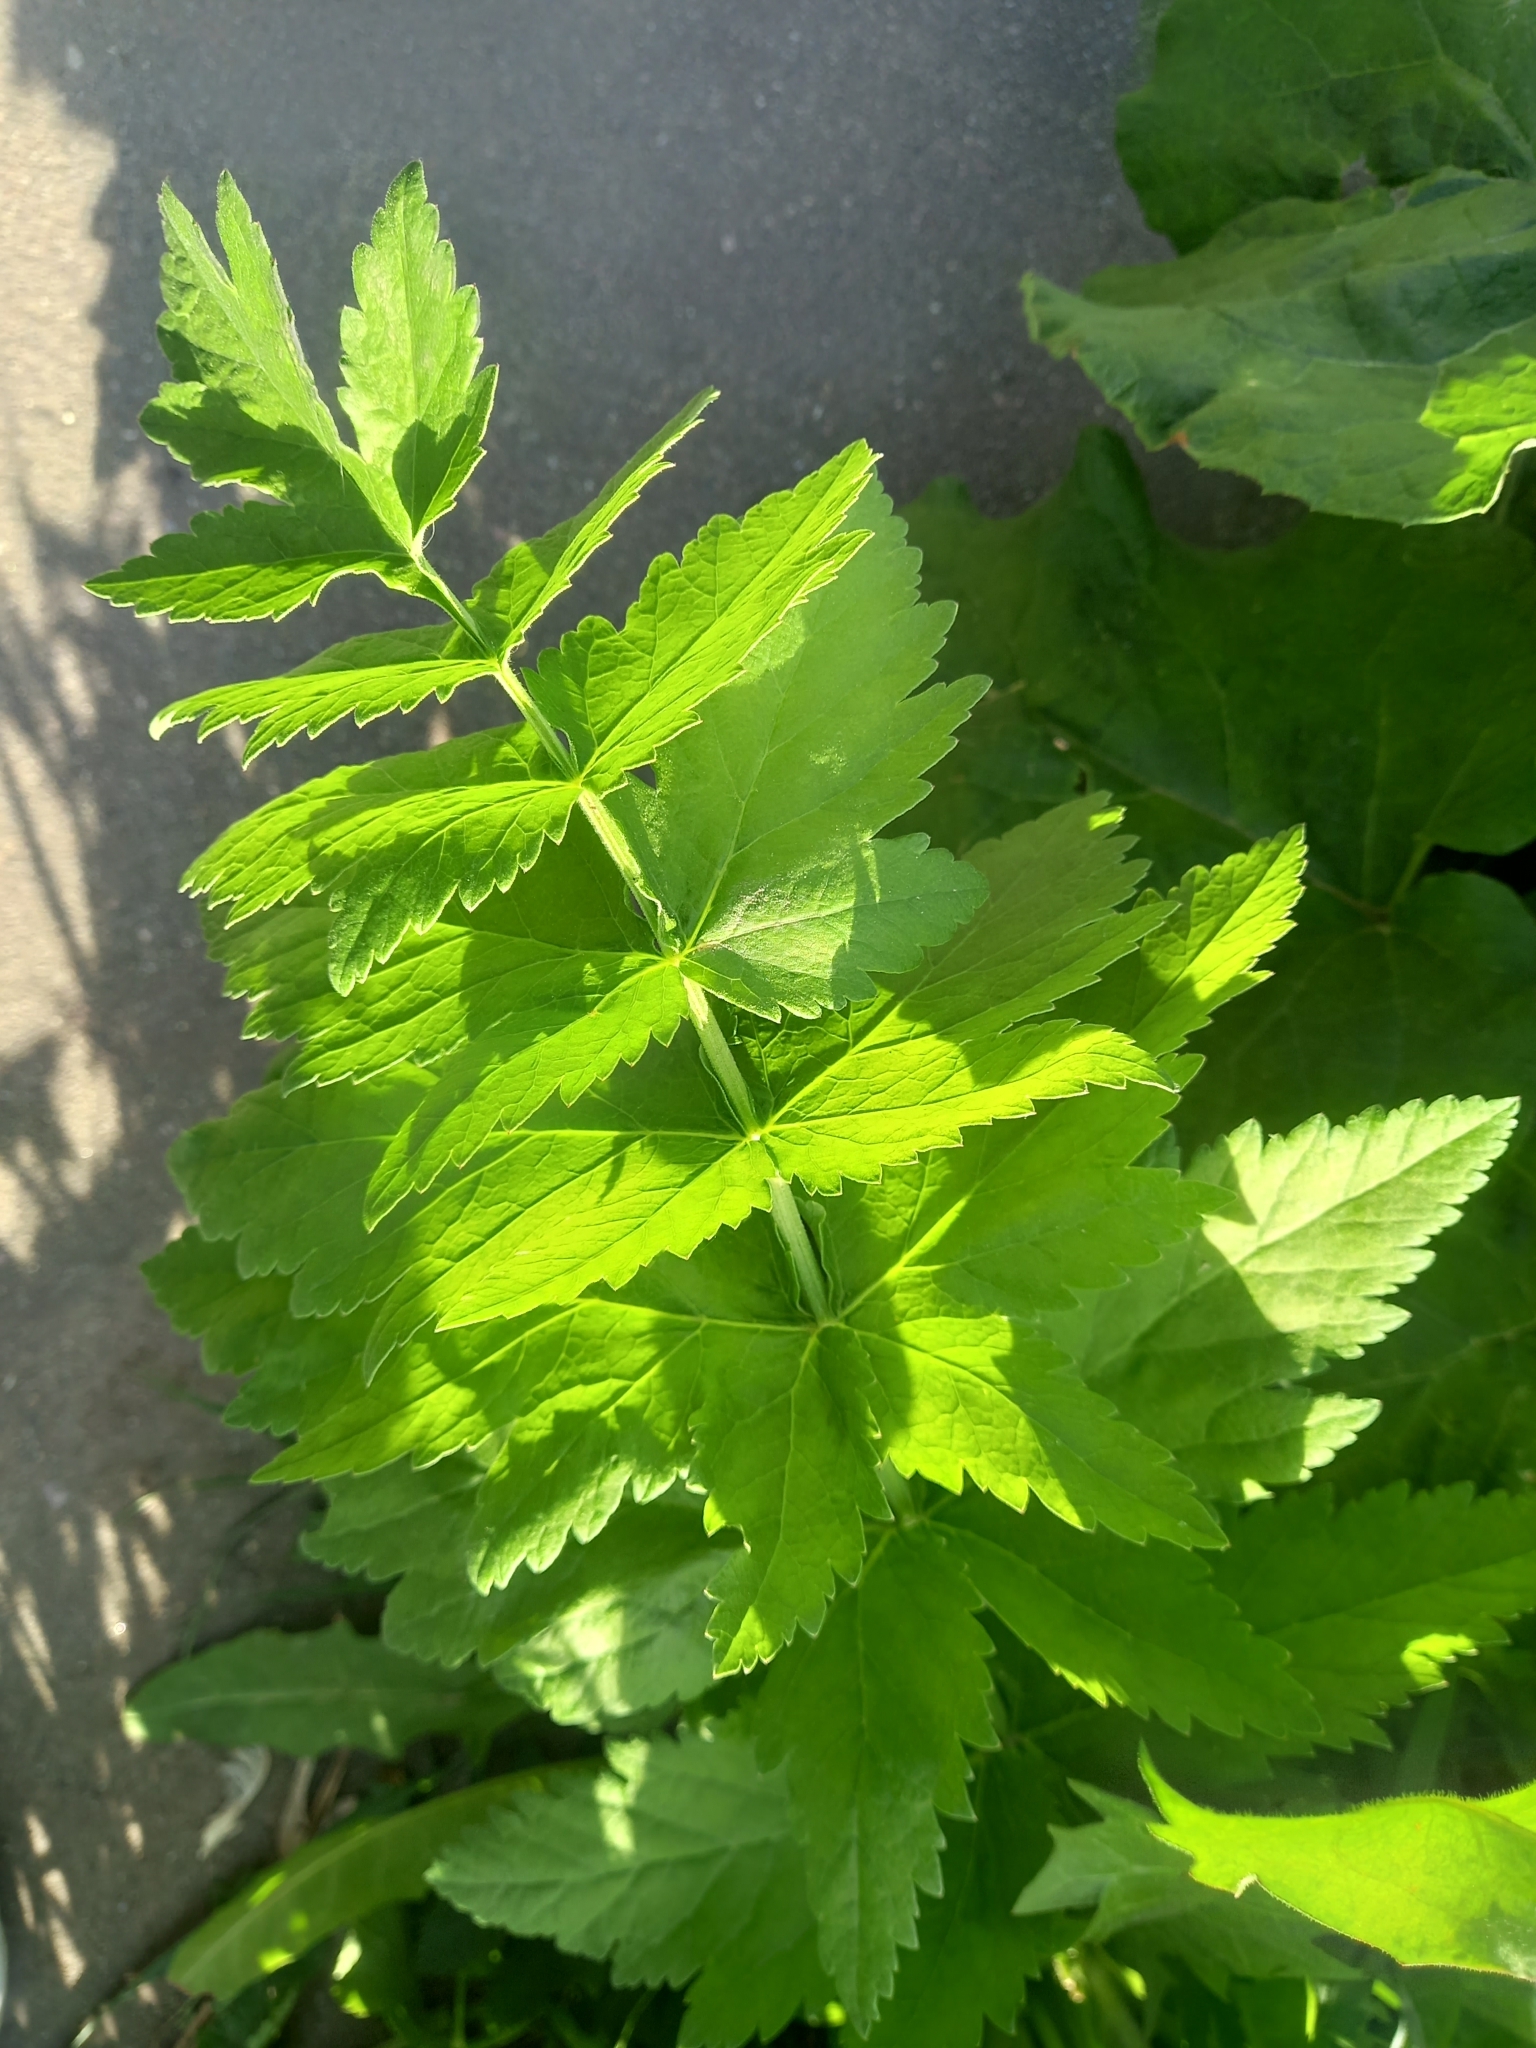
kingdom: Plantae
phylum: Tracheophyta
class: Magnoliopsida
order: Apiales
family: Apiaceae
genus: Pastinaca
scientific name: Pastinaca sativa
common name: Wild parsnip
